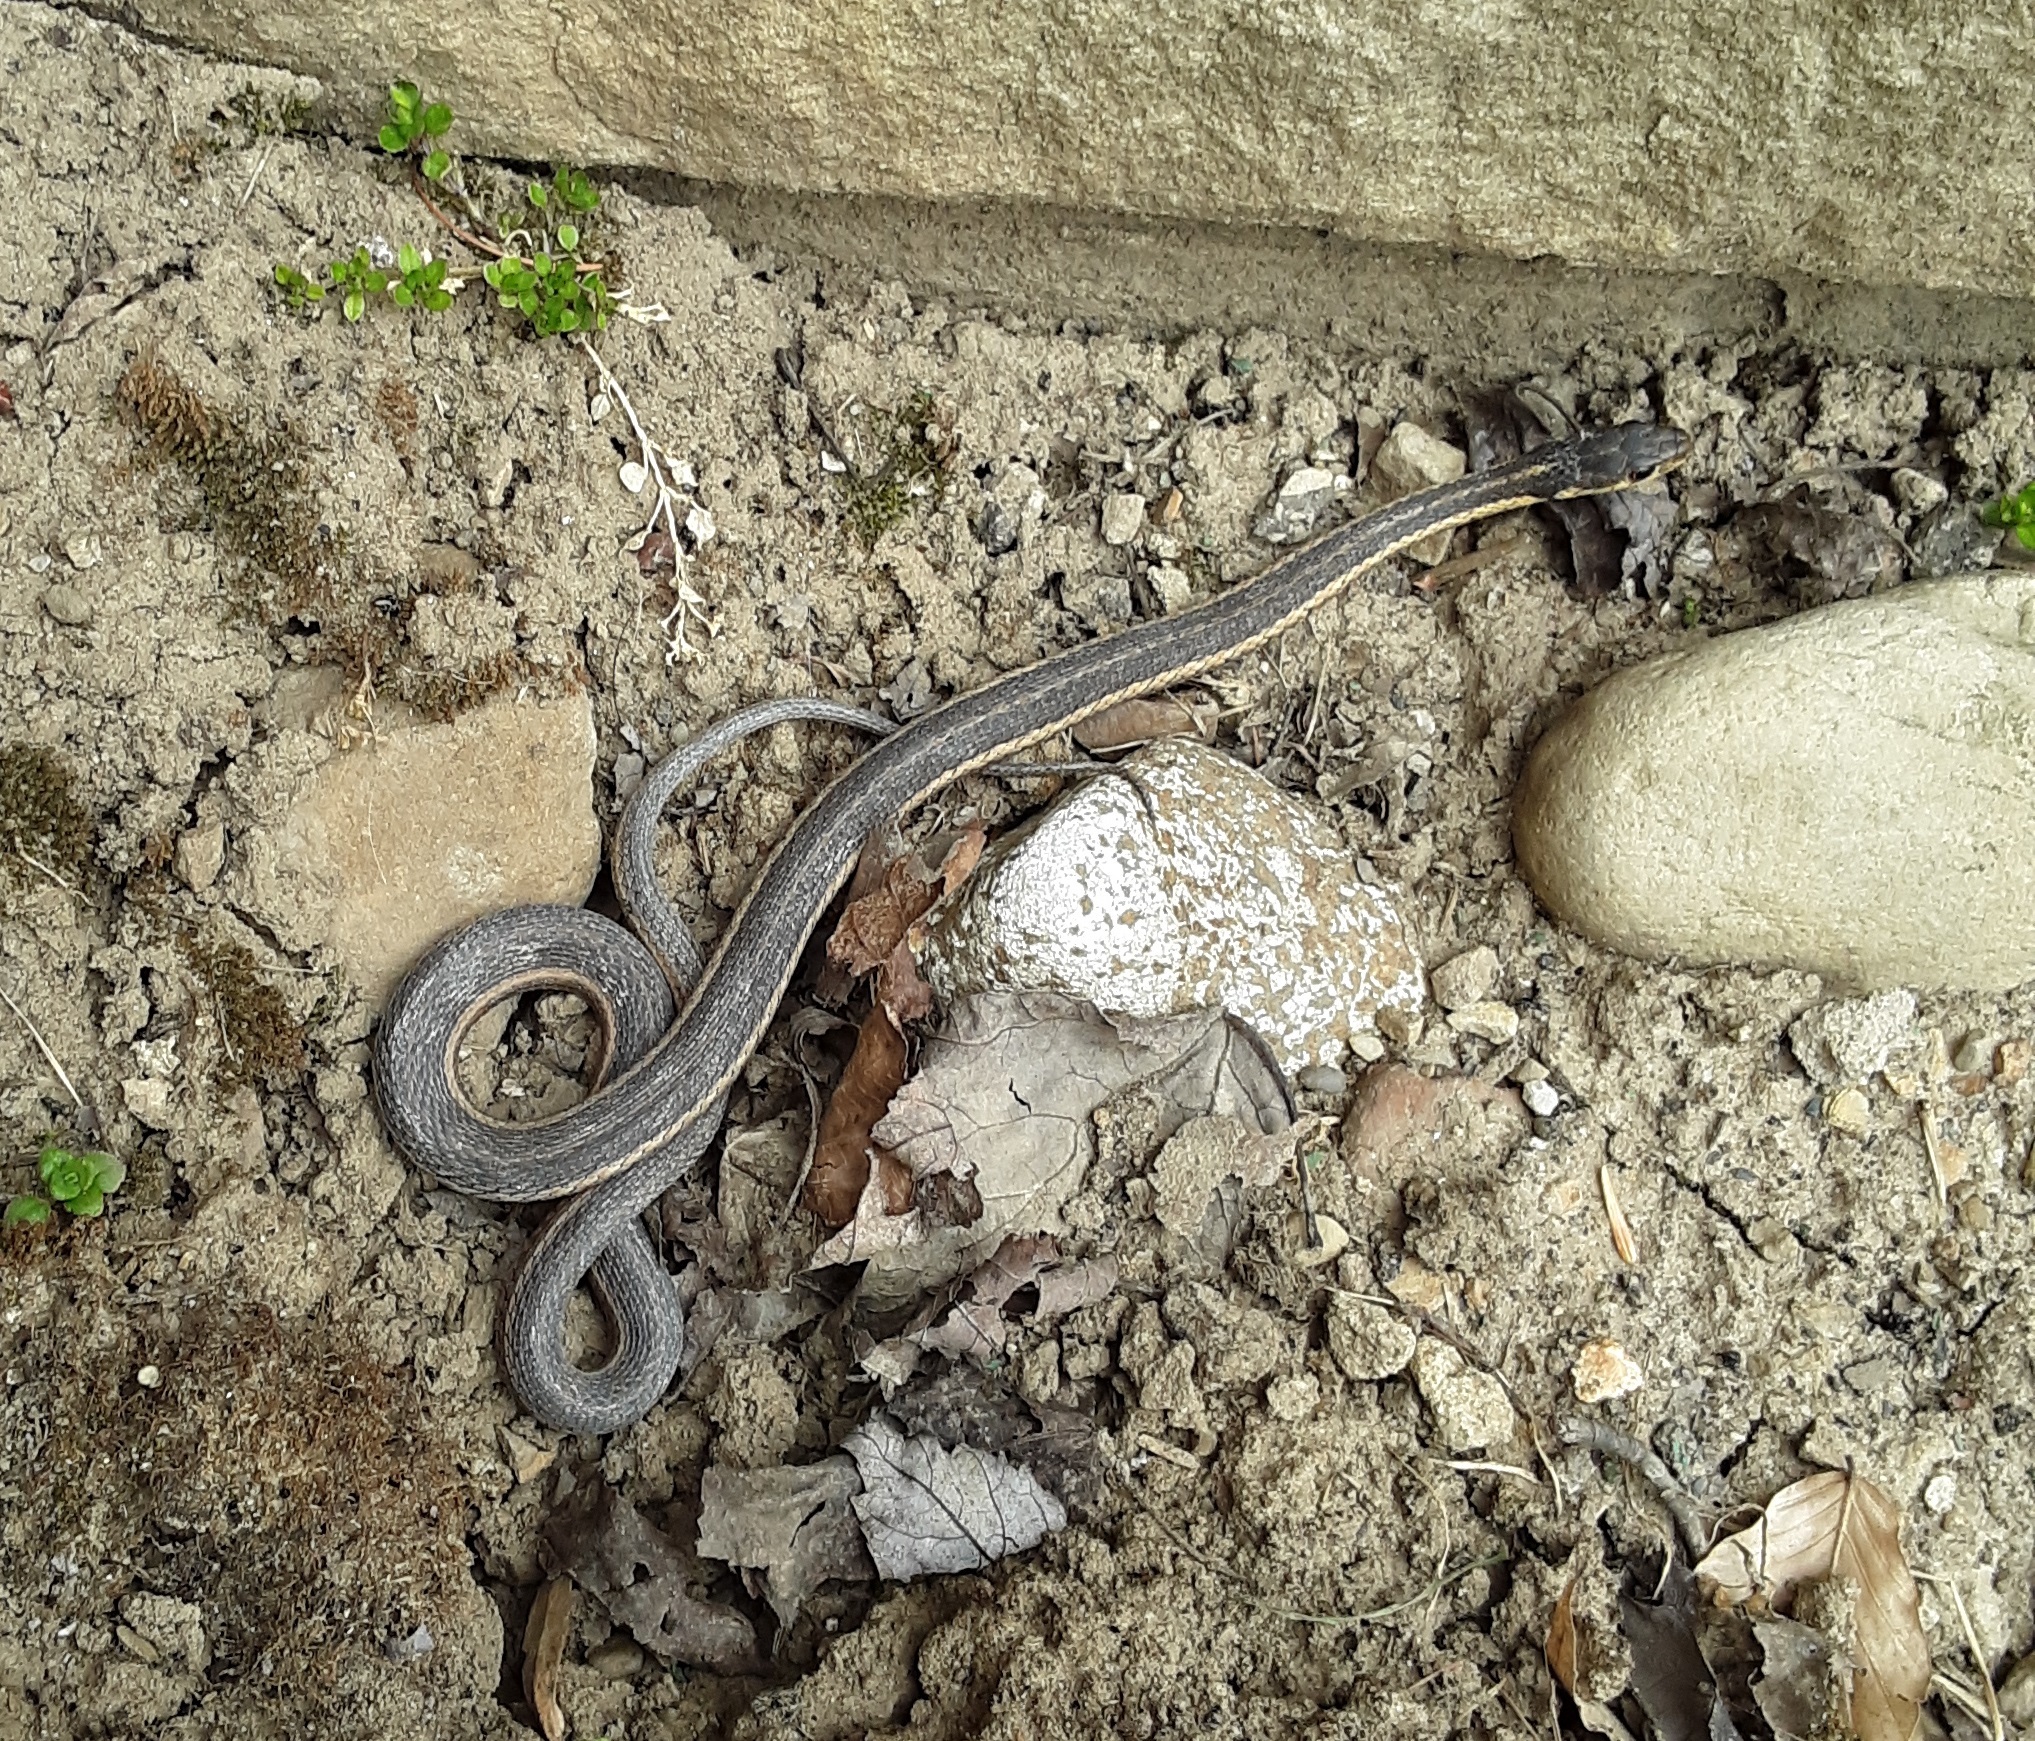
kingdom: Animalia
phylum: Chordata
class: Squamata
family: Colubridae
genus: Thamnophis
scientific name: Thamnophis sirtalis
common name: Common garter snake
